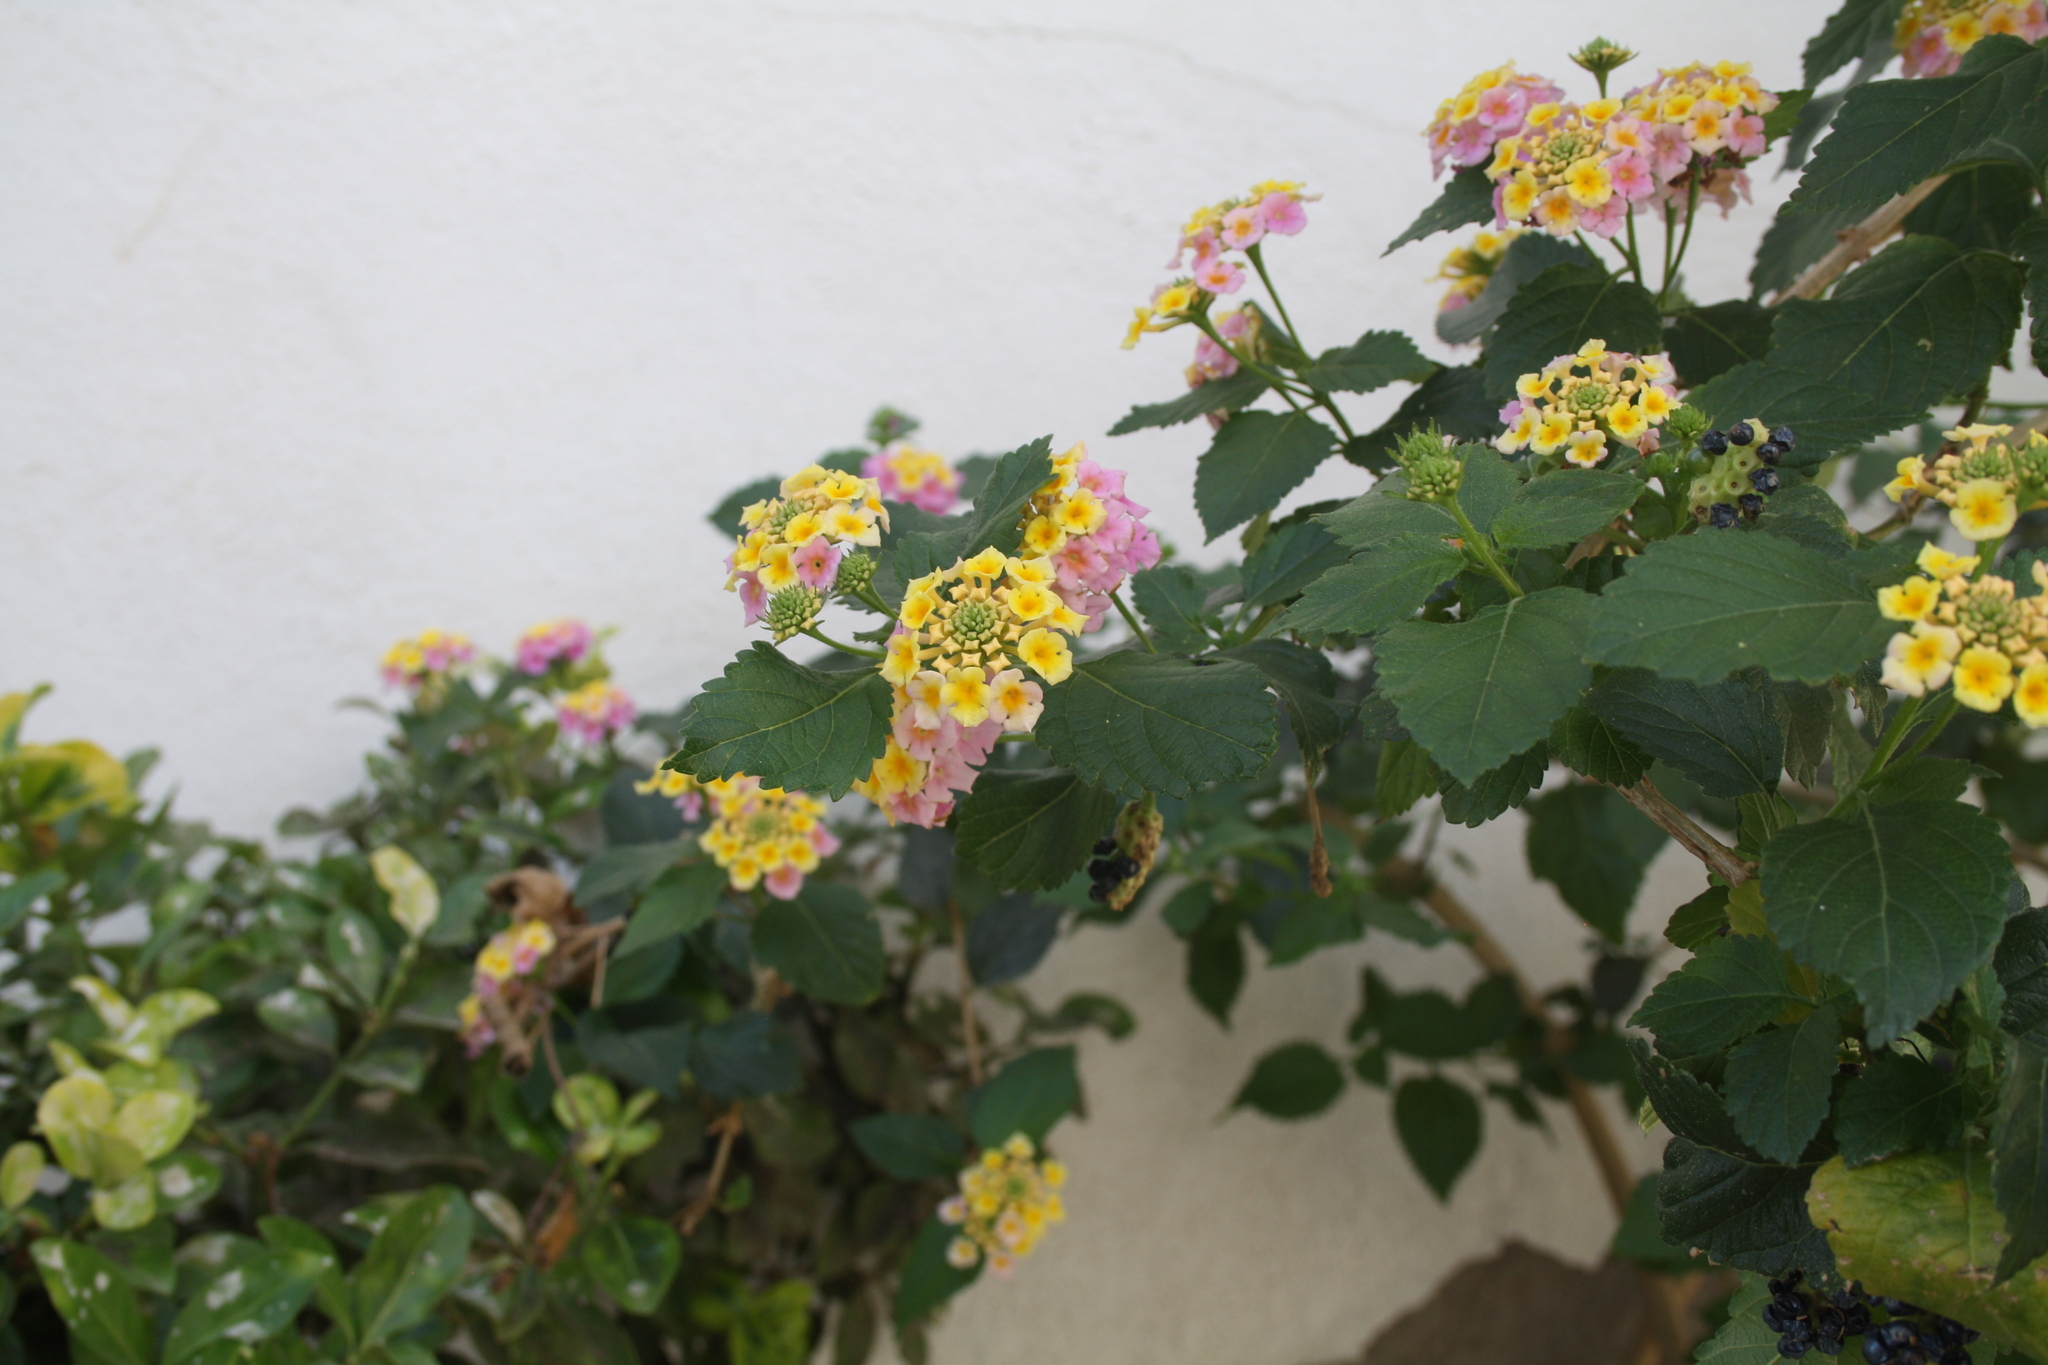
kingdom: Plantae
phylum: Tracheophyta
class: Magnoliopsida
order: Lamiales
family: Verbenaceae
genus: Lantana
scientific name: Lantana camara
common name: Lantana
